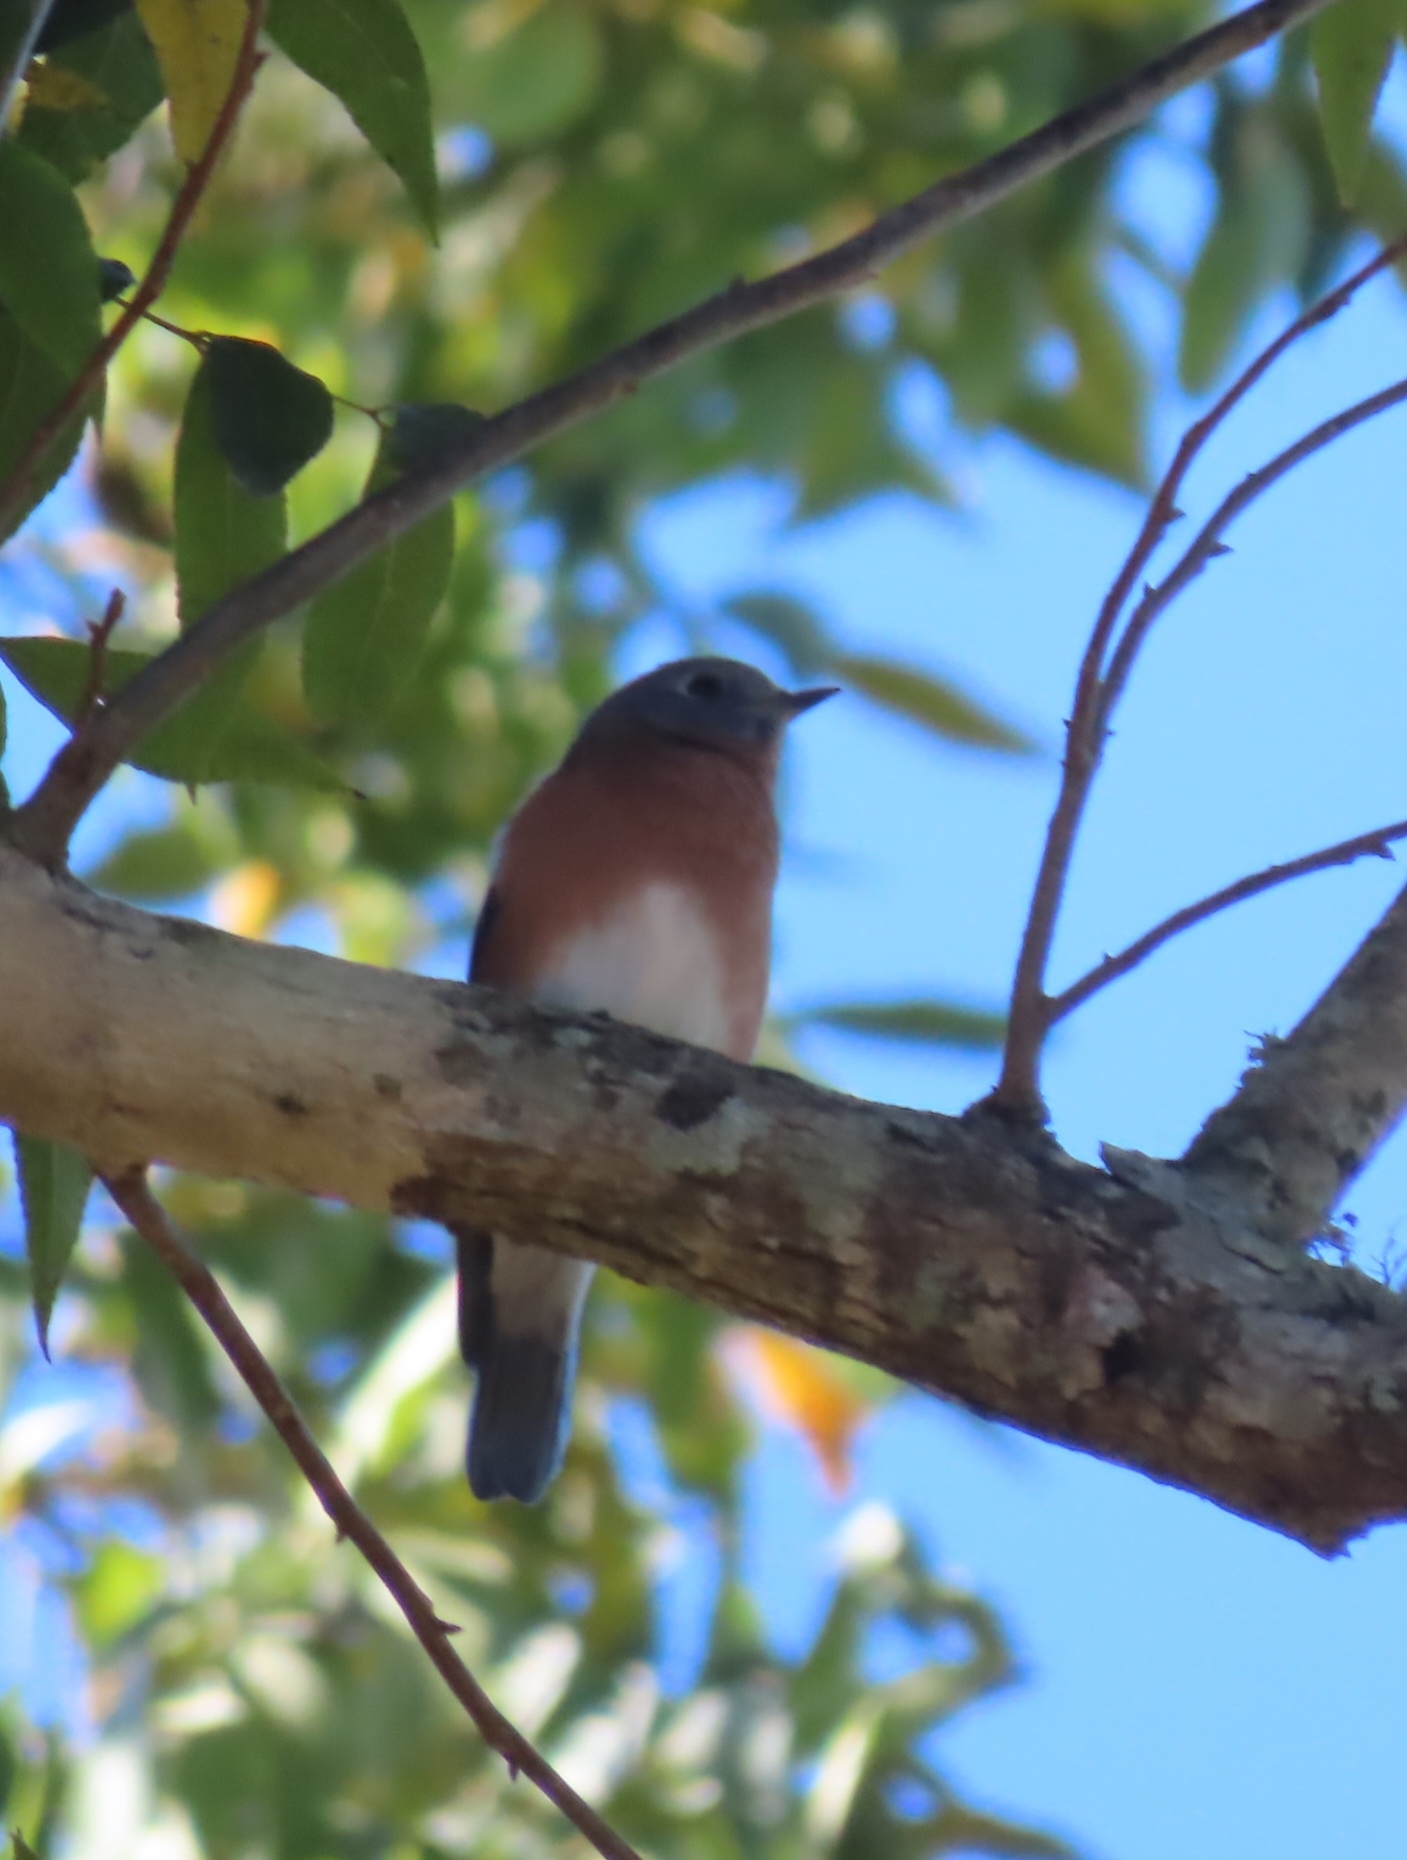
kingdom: Animalia
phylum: Chordata
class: Aves
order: Passeriformes
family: Turdidae
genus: Sialia
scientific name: Sialia sialis
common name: Eastern bluebird
